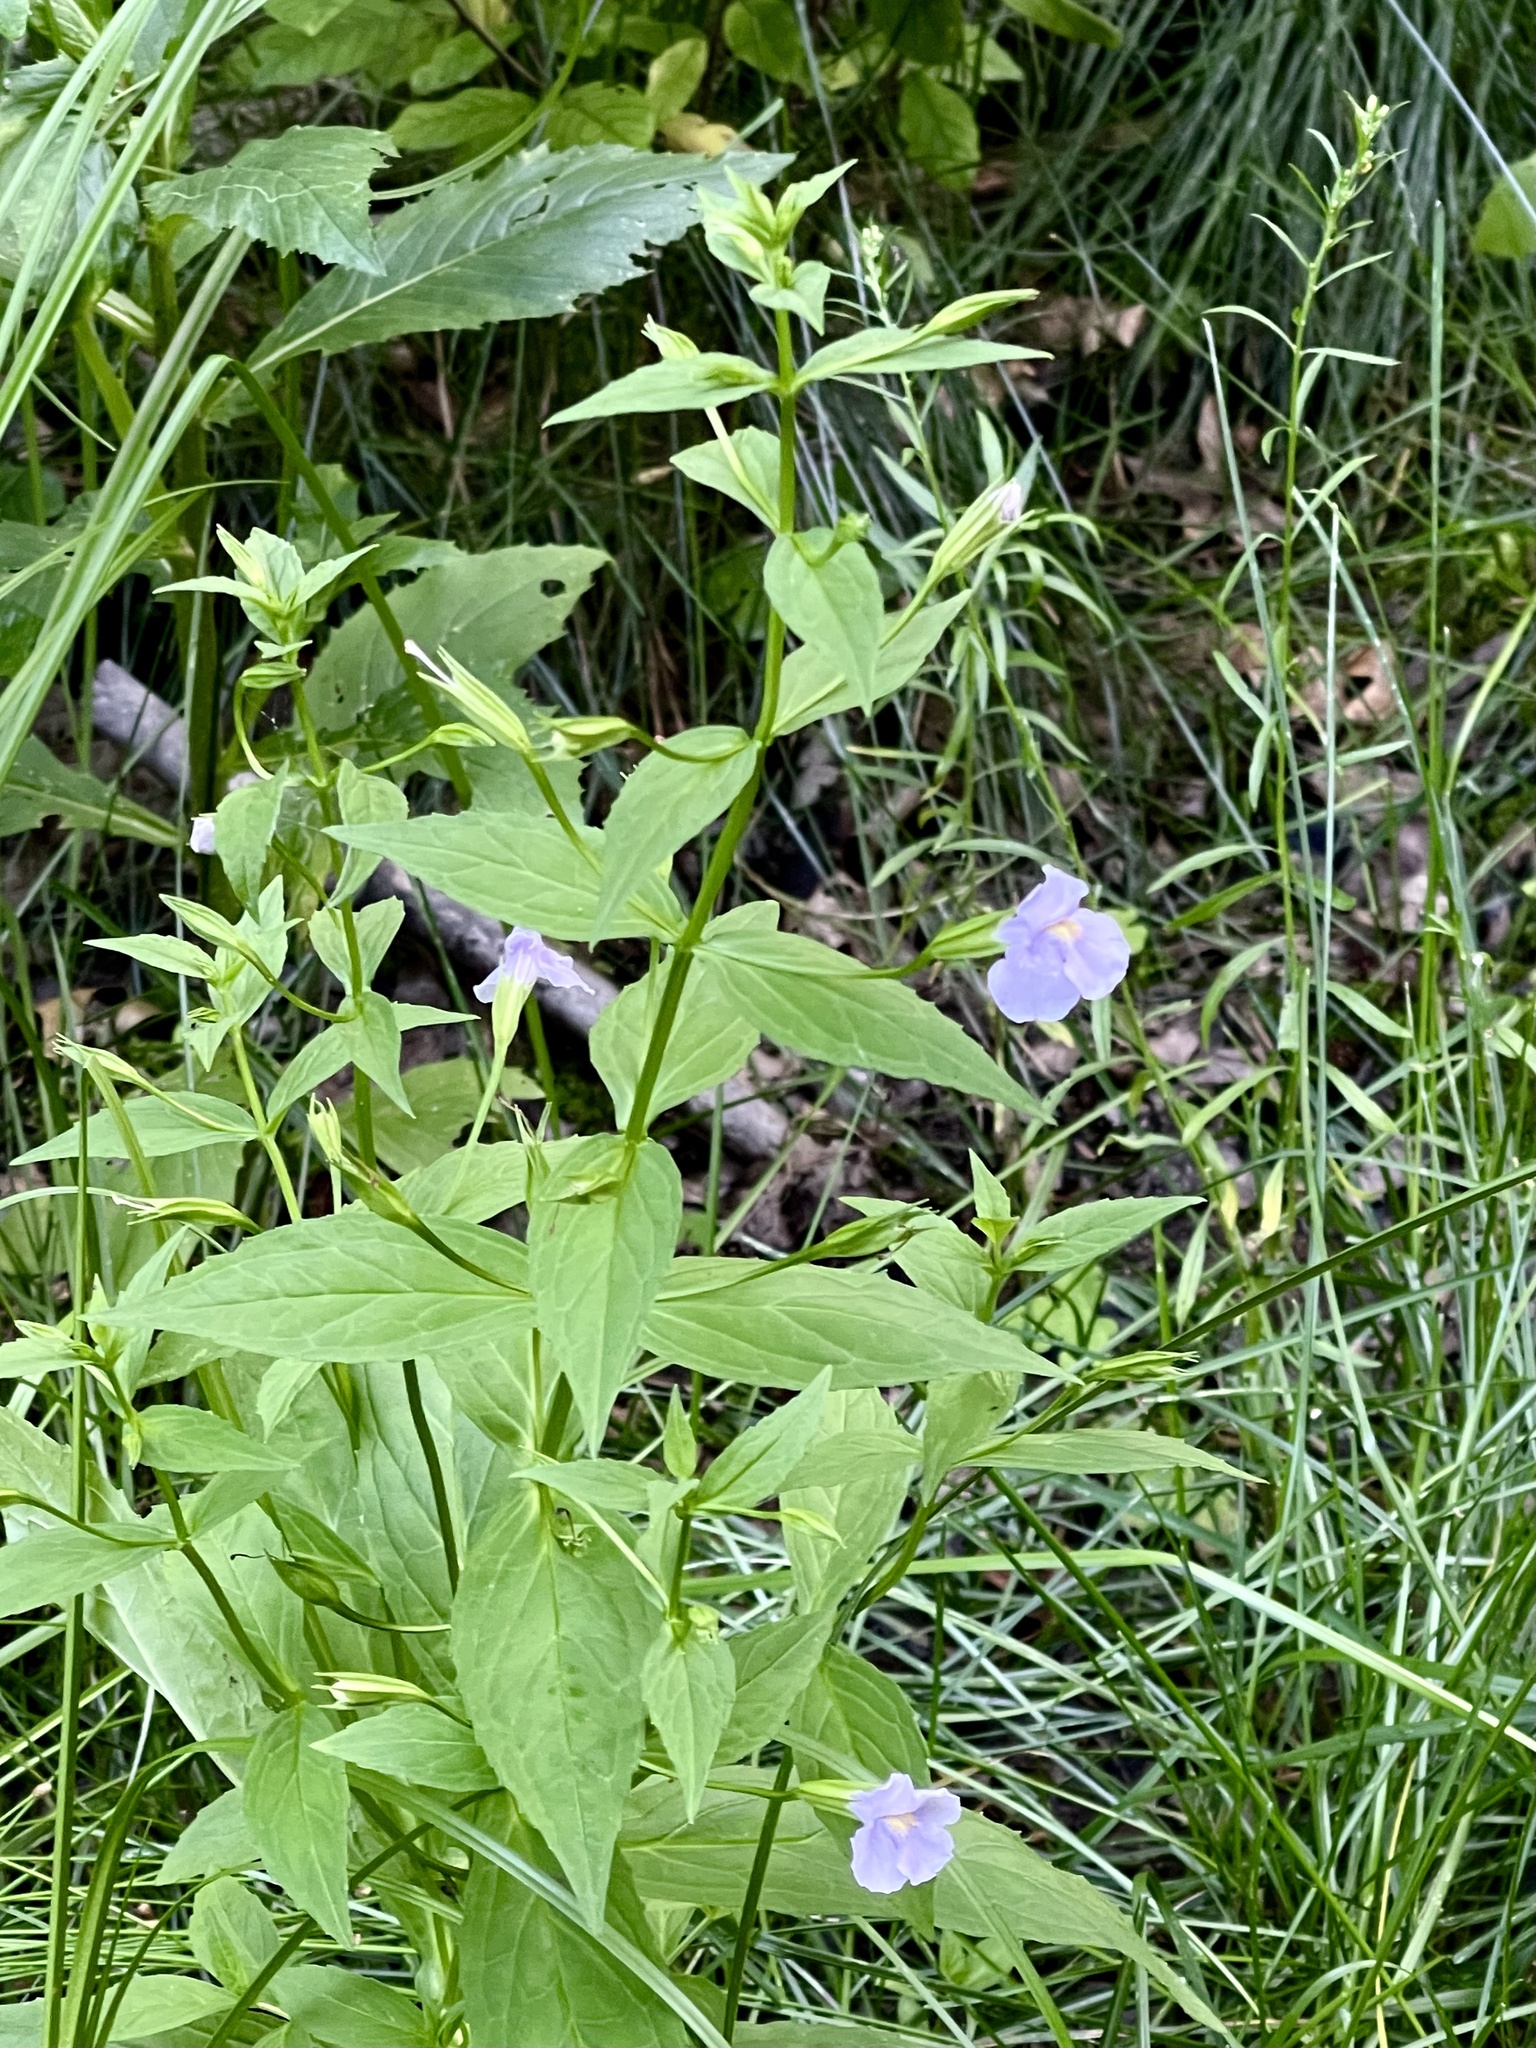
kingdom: Plantae
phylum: Tracheophyta
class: Magnoliopsida
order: Lamiales
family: Phrymaceae
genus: Mimulus
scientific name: Mimulus ringens
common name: Allegheny monkeyflower
